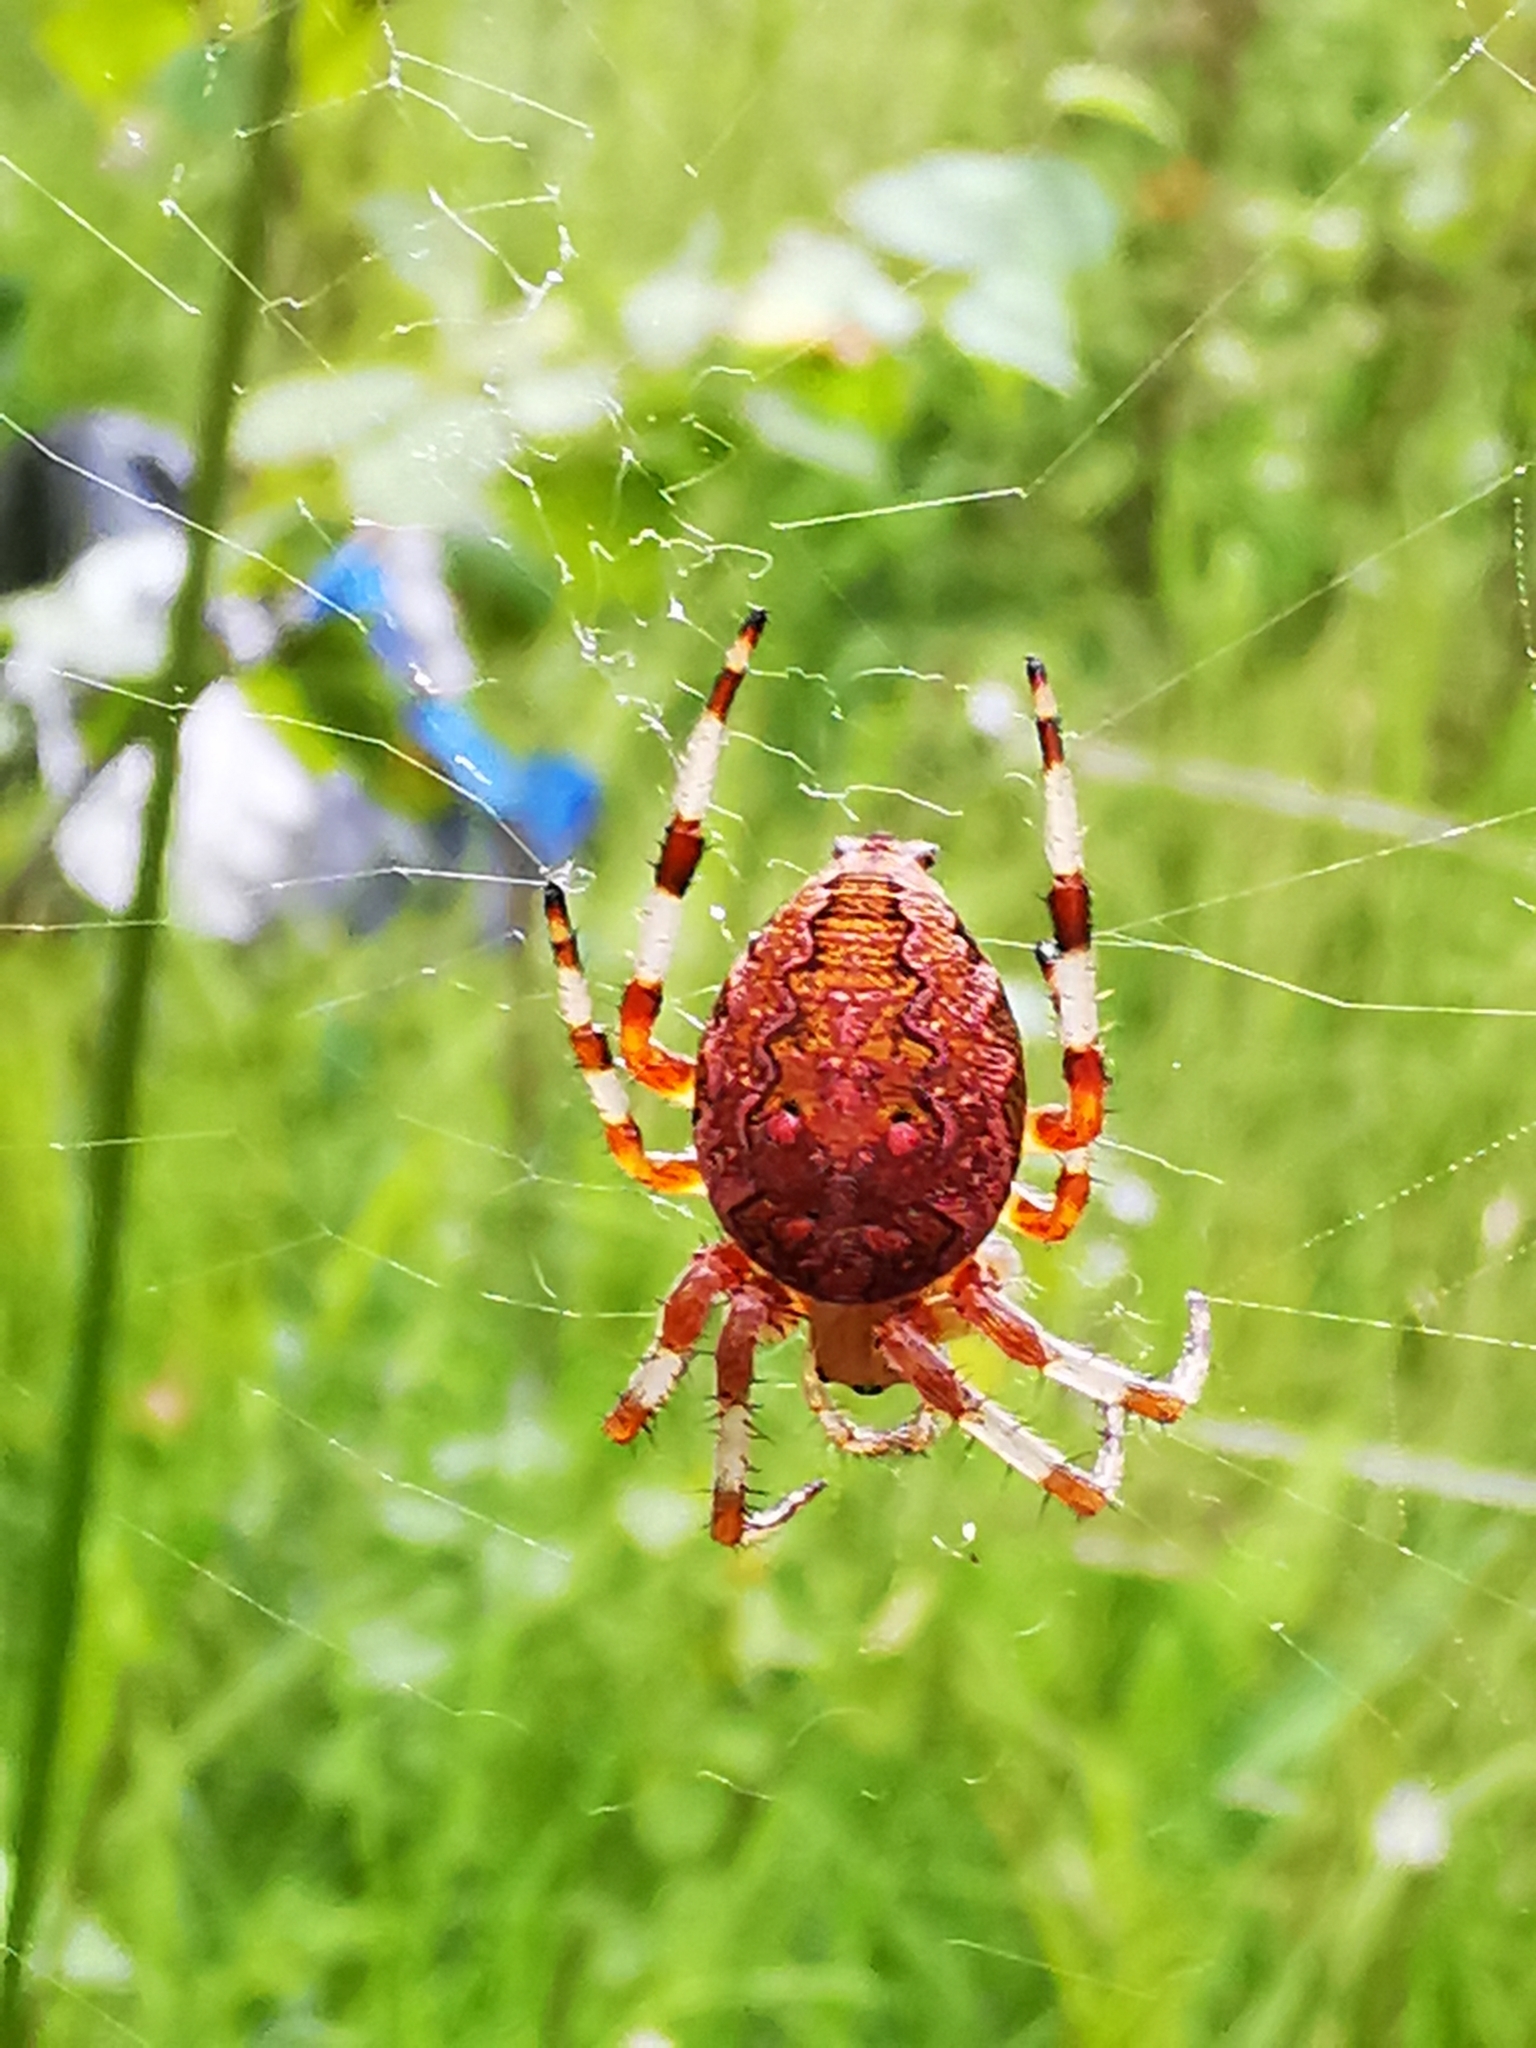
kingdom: Animalia
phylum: Arthropoda
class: Arachnida
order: Araneae
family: Araneidae
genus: Araneus
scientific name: Araneus marmoreus
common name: Marbled orbweaver
